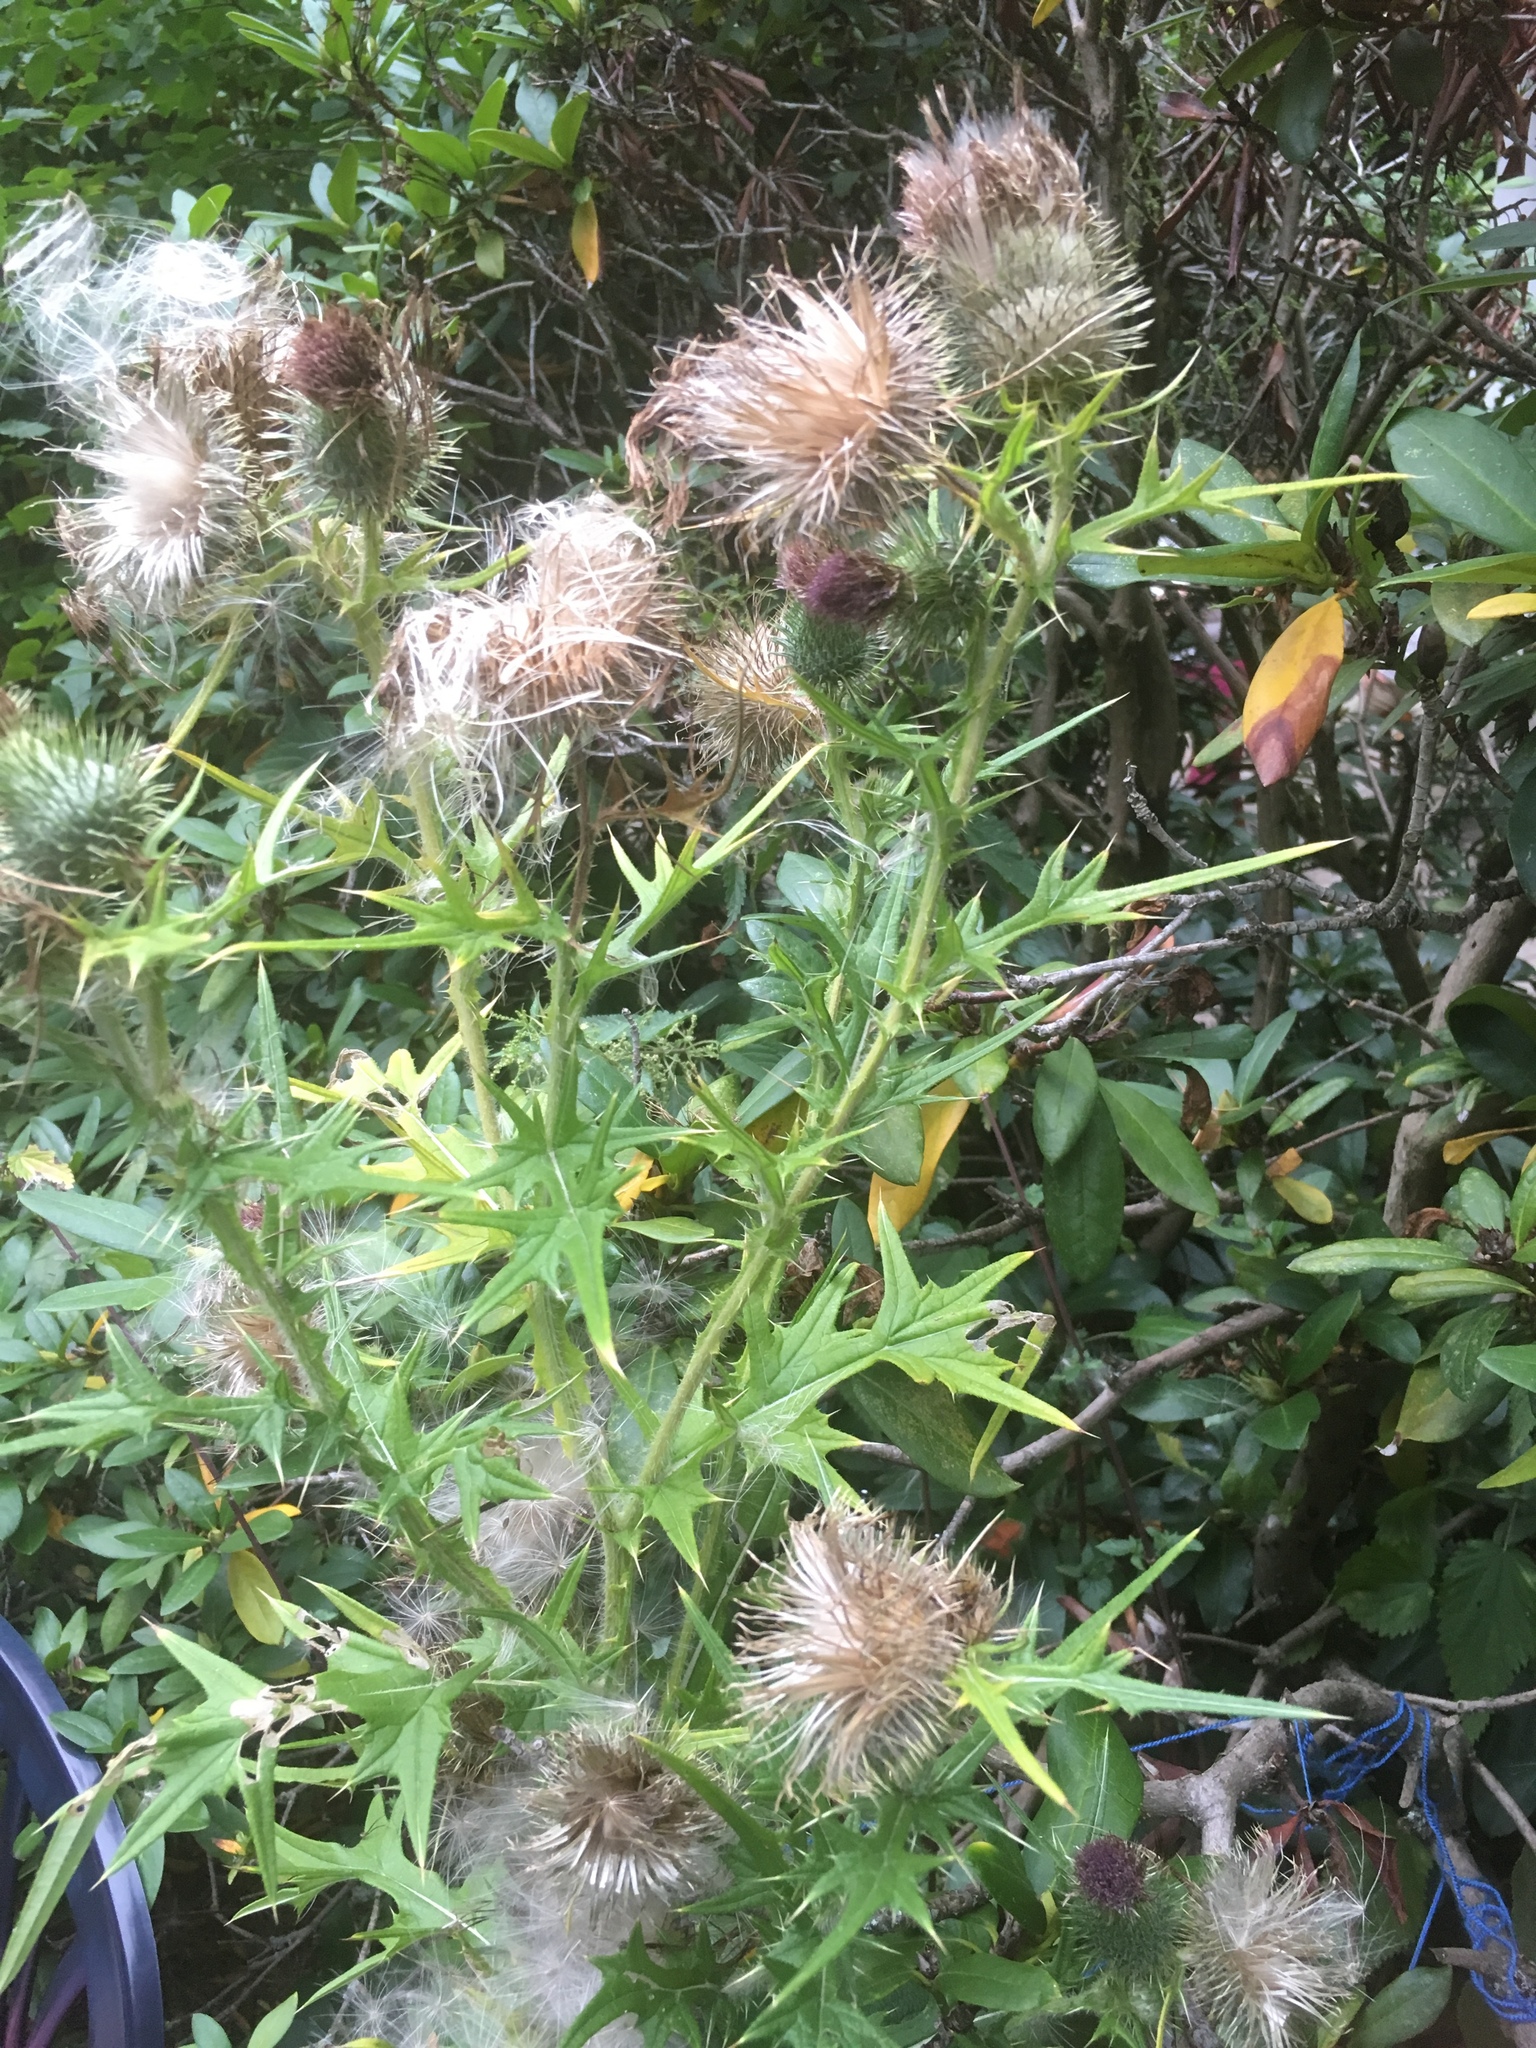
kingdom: Plantae
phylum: Tracheophyta
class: Magnoliopsida
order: Asterales
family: Asteraceae
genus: Cirsium
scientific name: Cirsium vulgare
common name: Bull thistle
